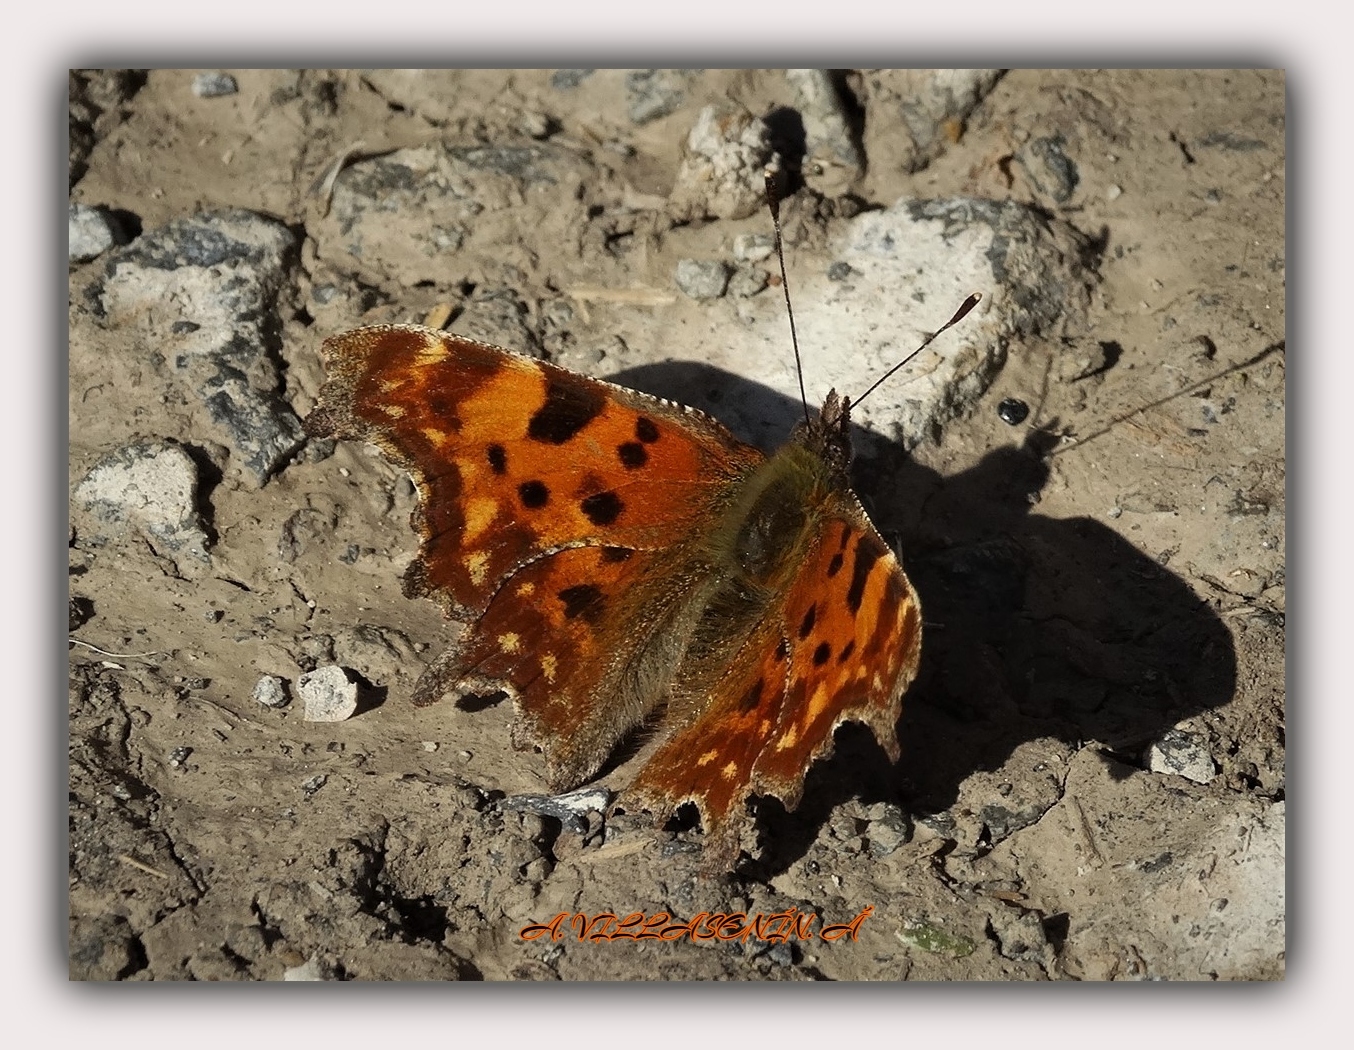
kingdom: Animalia
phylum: Arthropoda
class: Insecta
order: Lepidoptera
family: Nymphalidae
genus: Polygonia
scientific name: Polygonia c-album
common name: Comma
